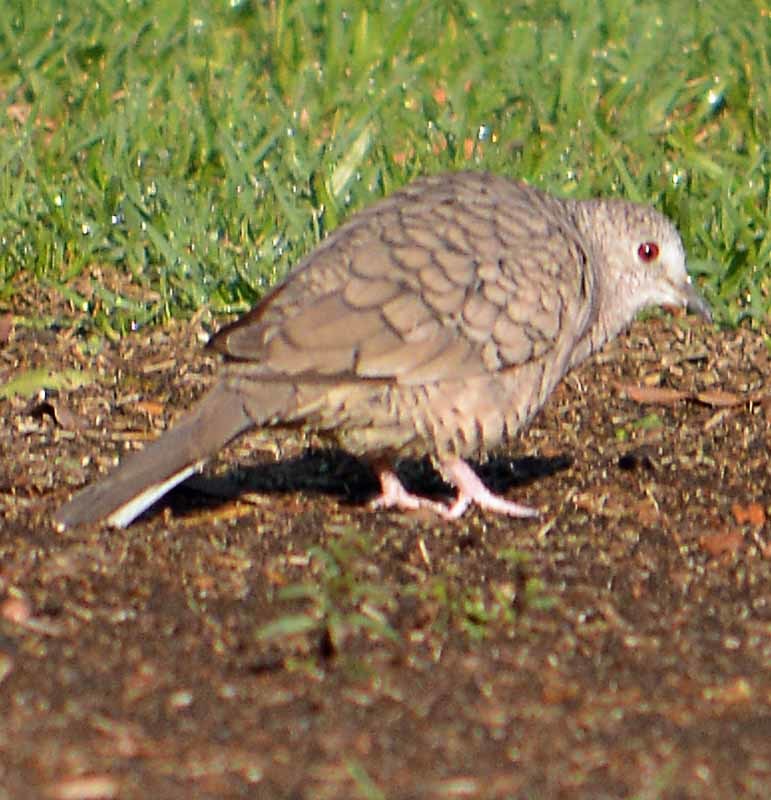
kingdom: Animalia
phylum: Chordata
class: Aves
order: Columbiformes
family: Columbidae
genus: Columbina
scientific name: Columbina inca
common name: Inca dove
